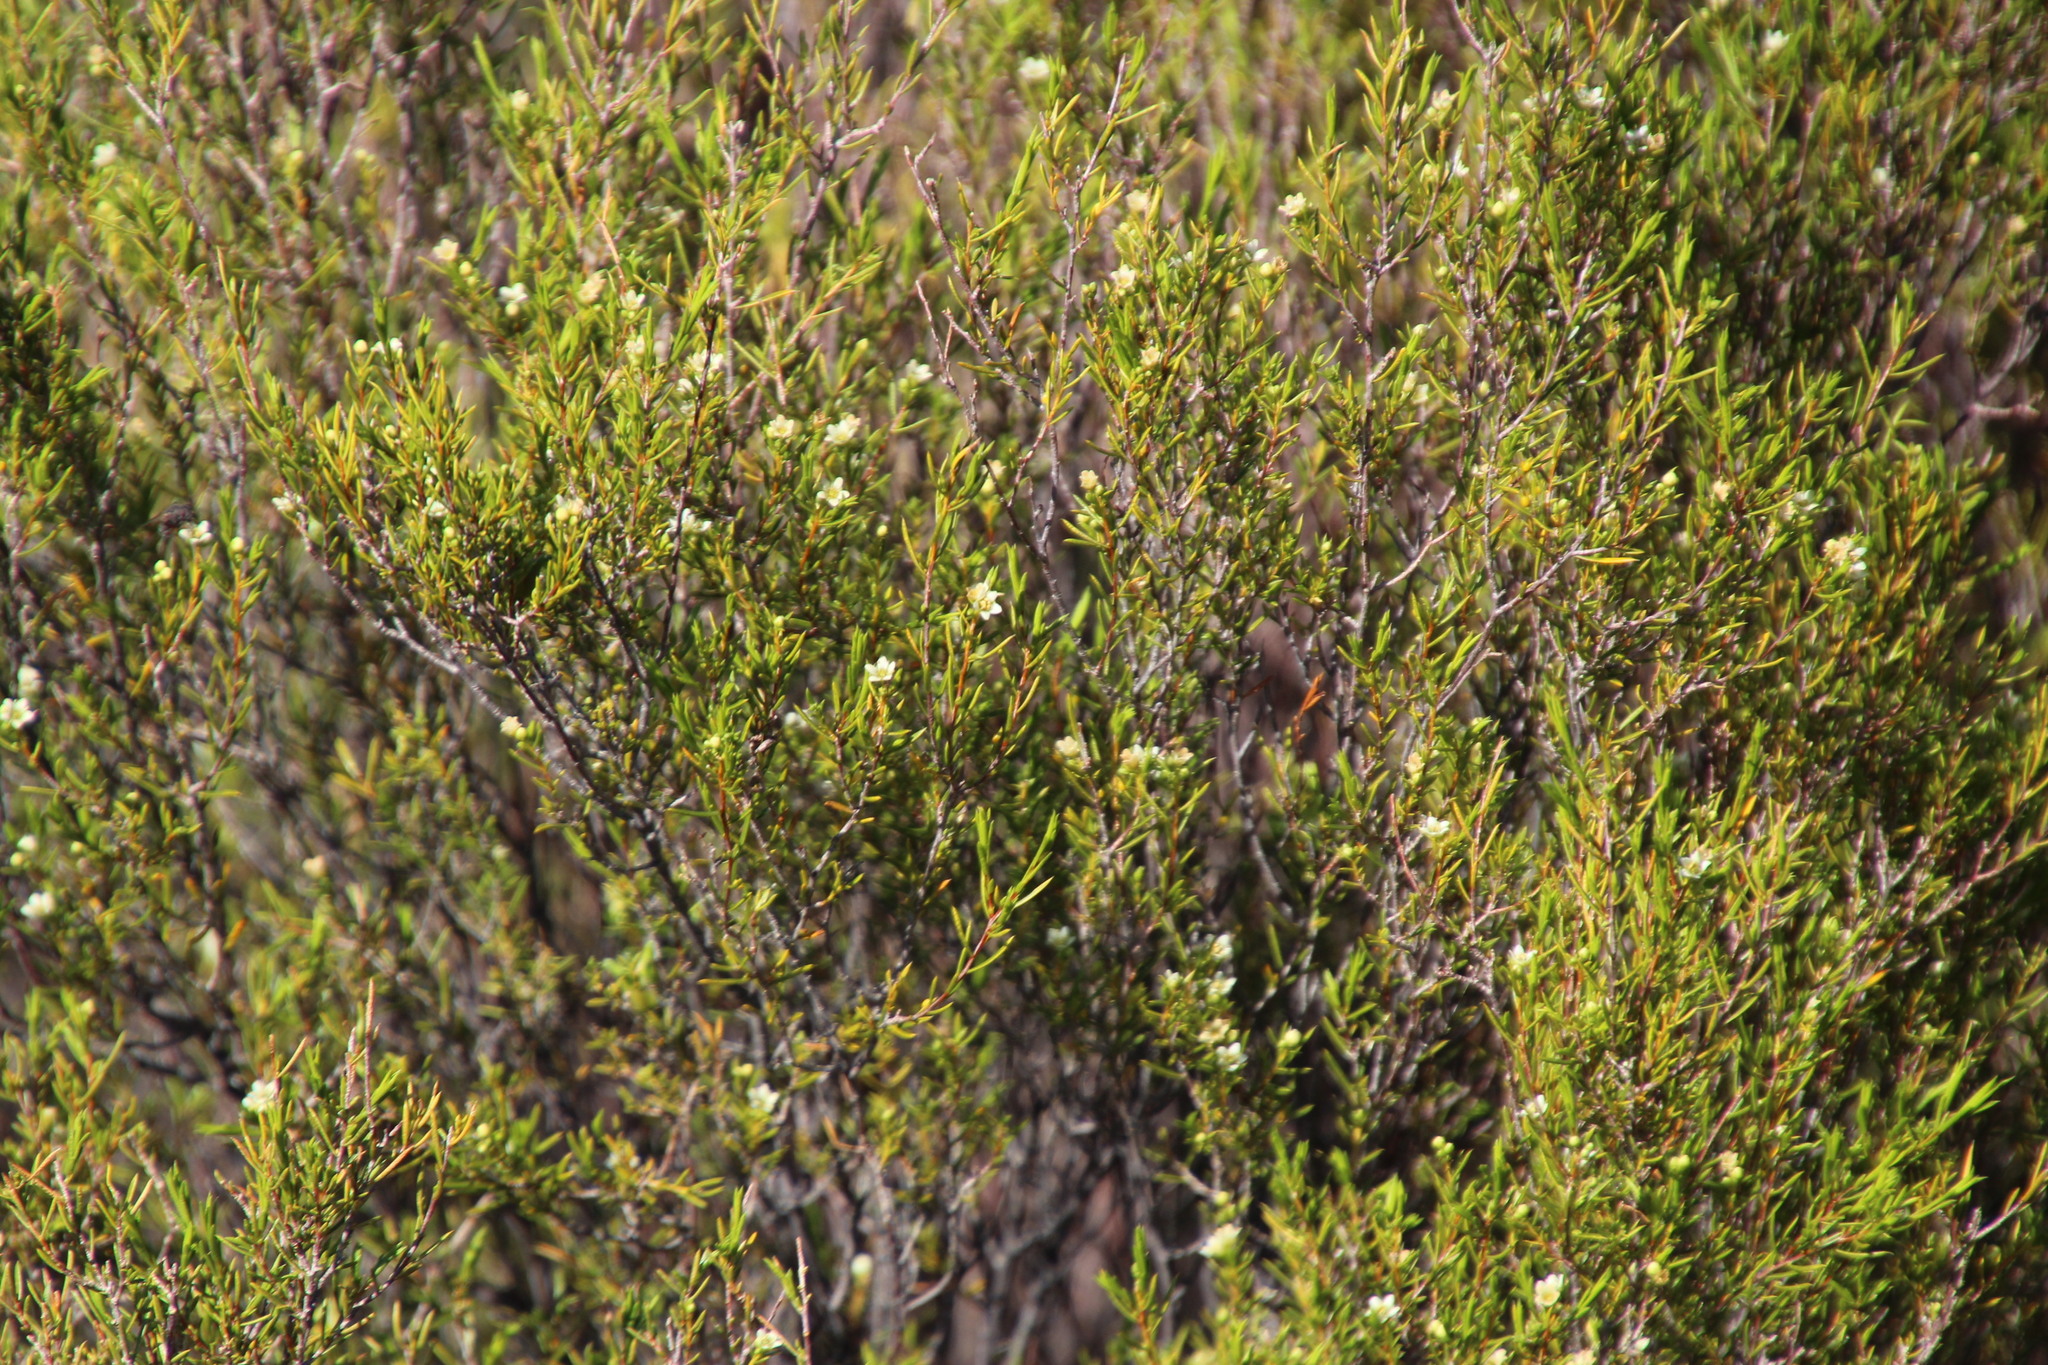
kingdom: Plantae
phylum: Tracheophyta
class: Magnoliopsida
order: Sapindales
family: Rutaceae
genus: Diosma
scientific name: Diosma acmaeophylla
